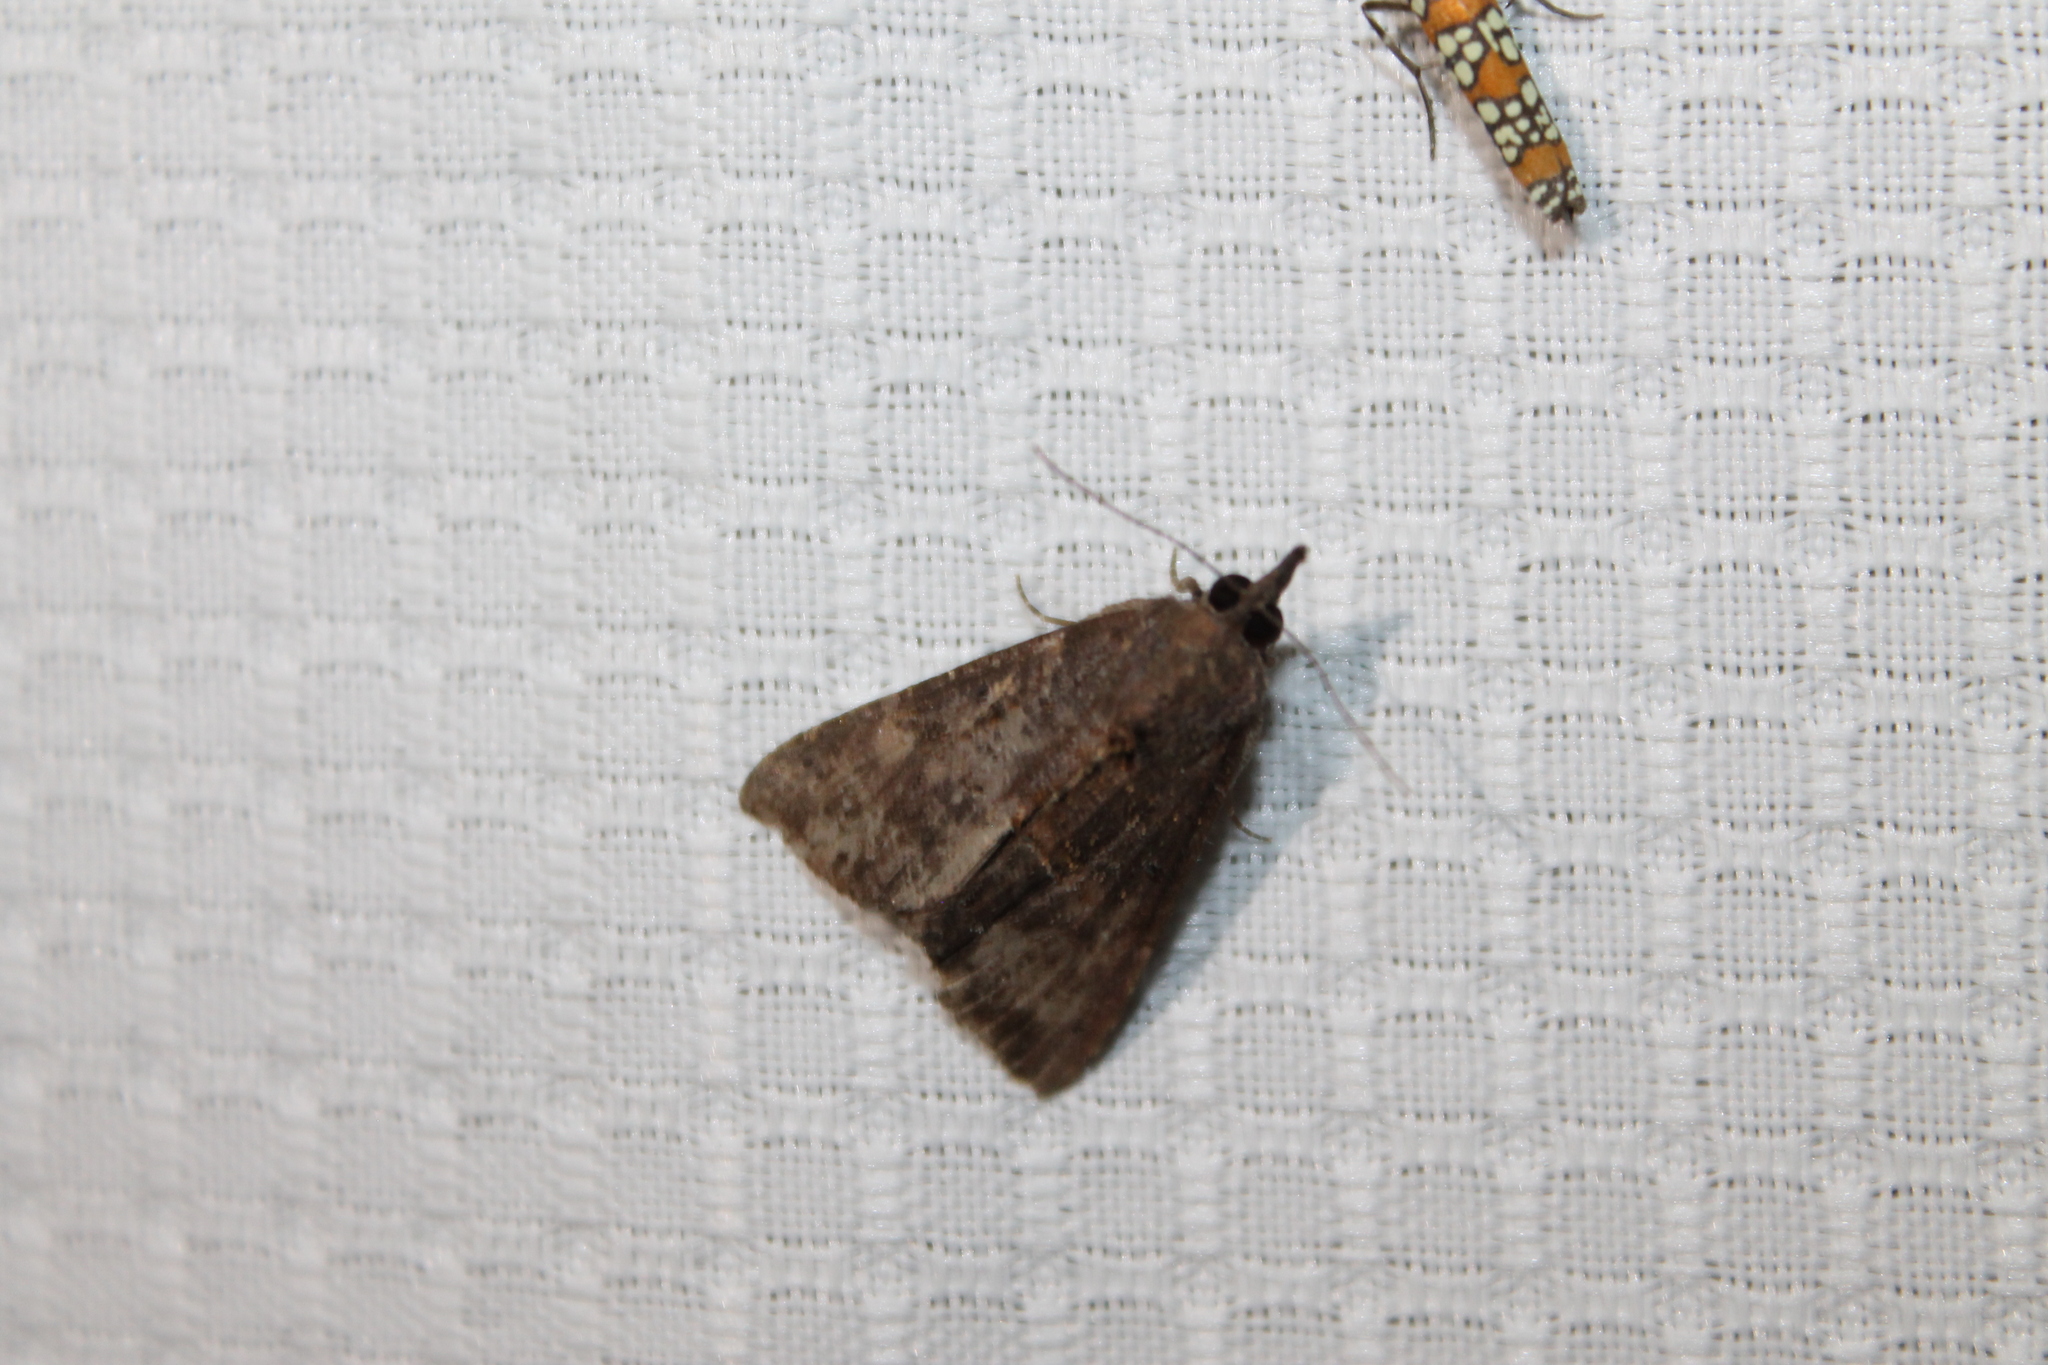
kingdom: Animalia
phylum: Arthropoda
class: Insecta
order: Lepidoptera
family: Erebidae
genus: Hypena
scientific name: Hypena scabra
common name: Green cloverworm
